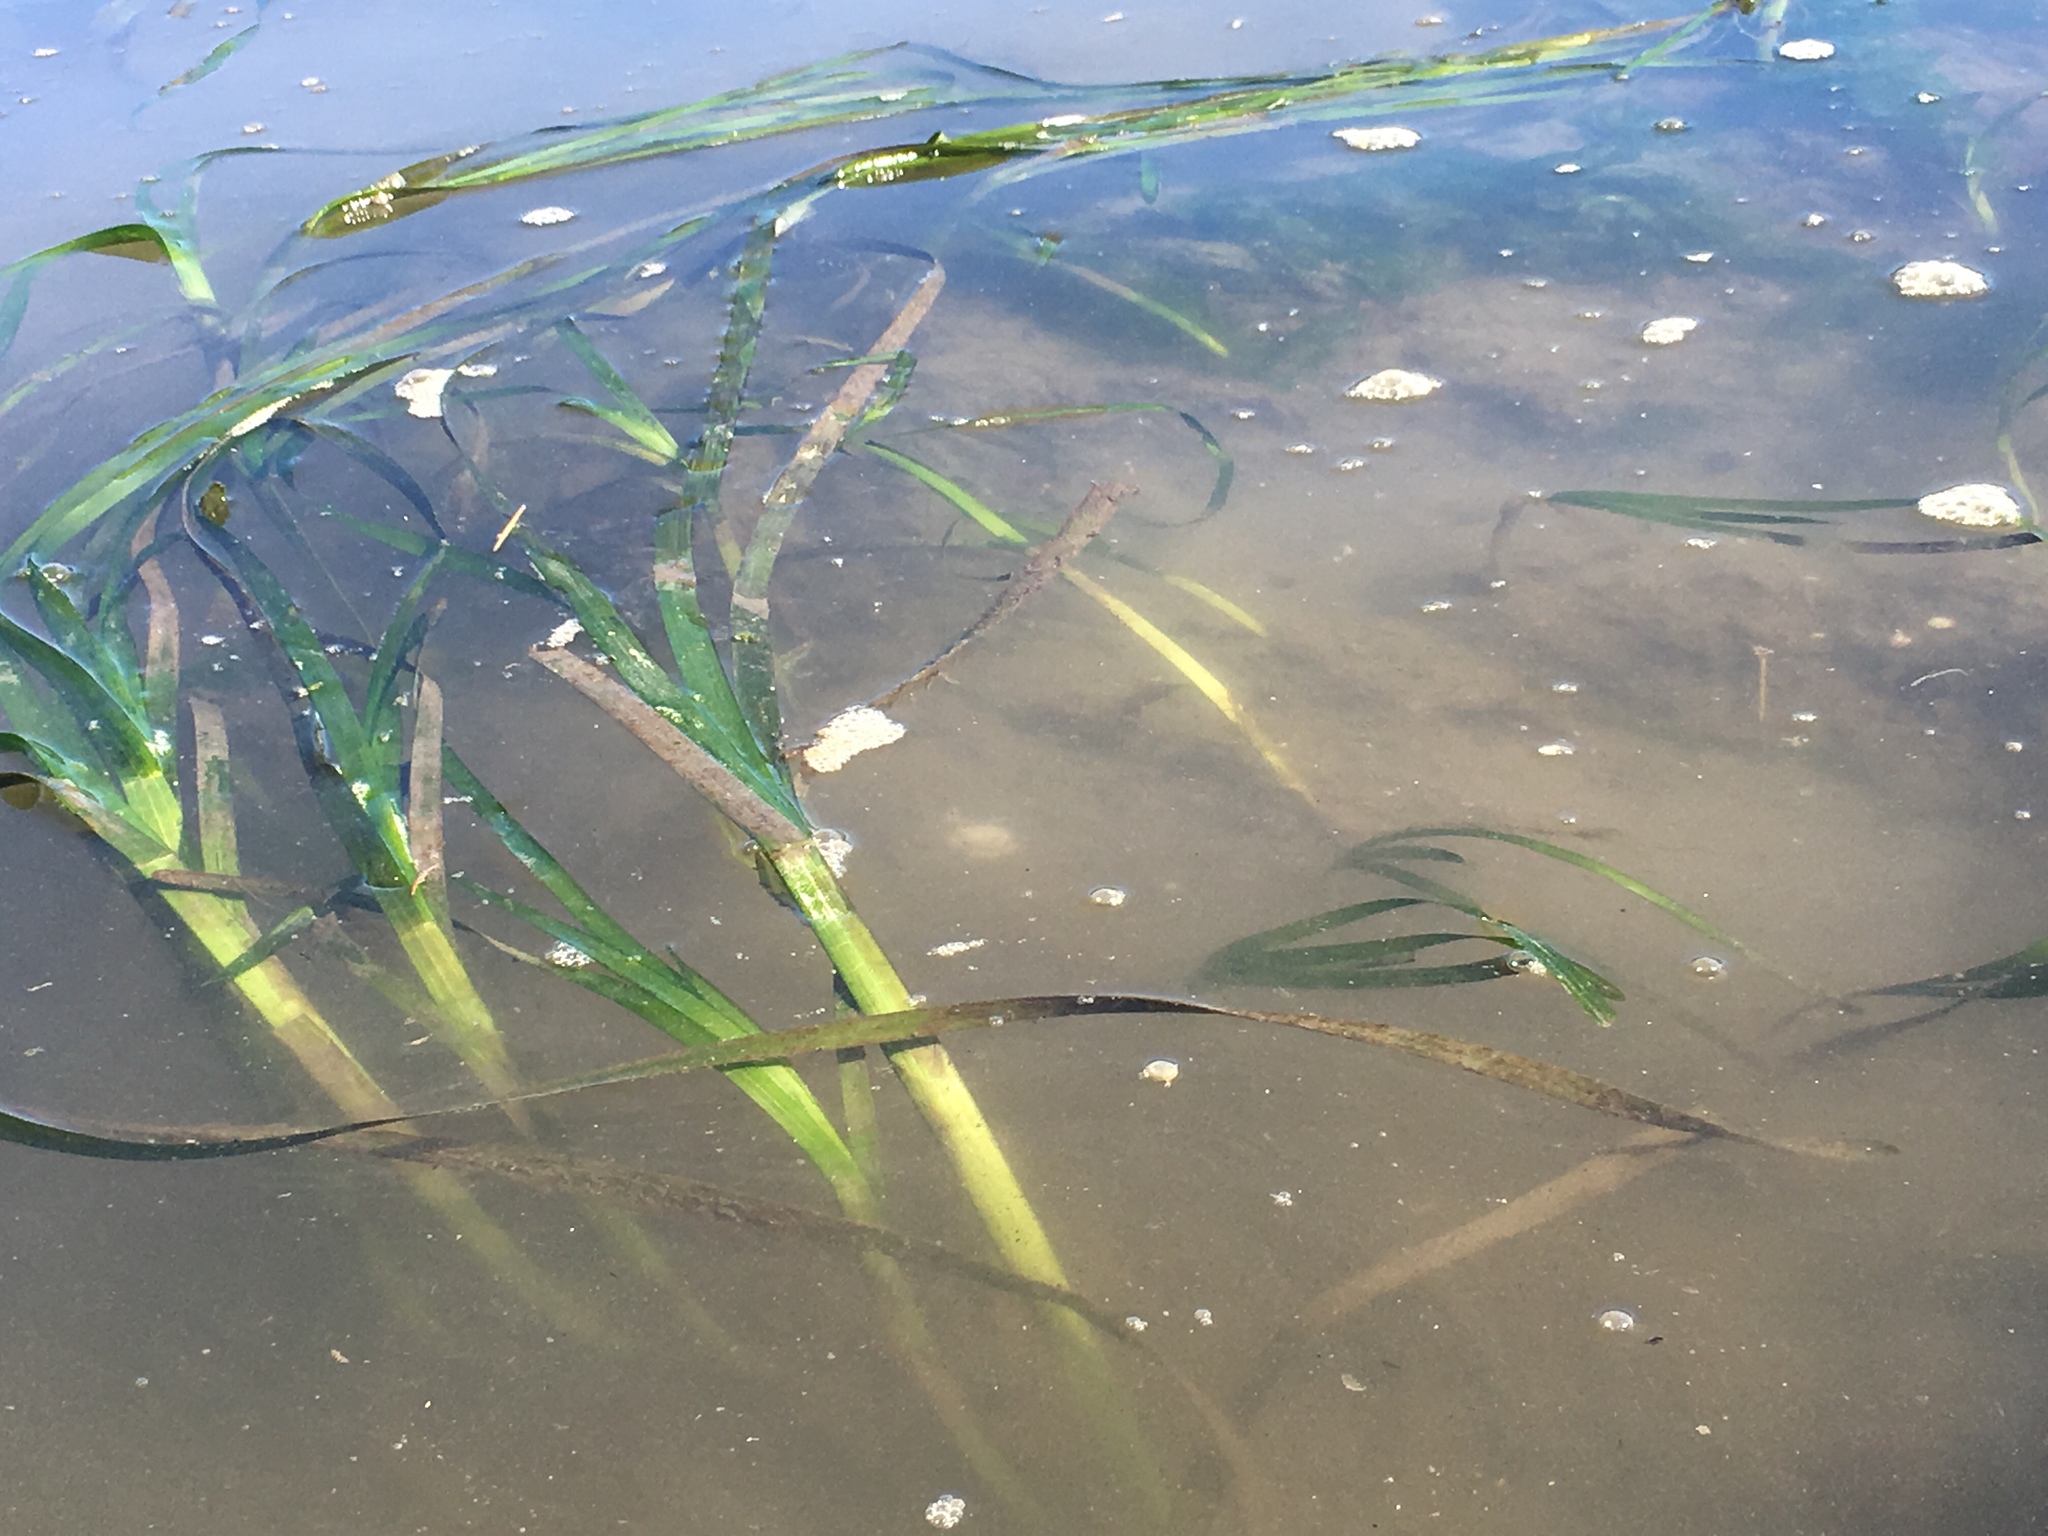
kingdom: Plantae
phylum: Tracheophyta
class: Liliopsida
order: Alismatales
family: Zosteraceae
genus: Zostera
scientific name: Zostera marina
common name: Eelgrass
